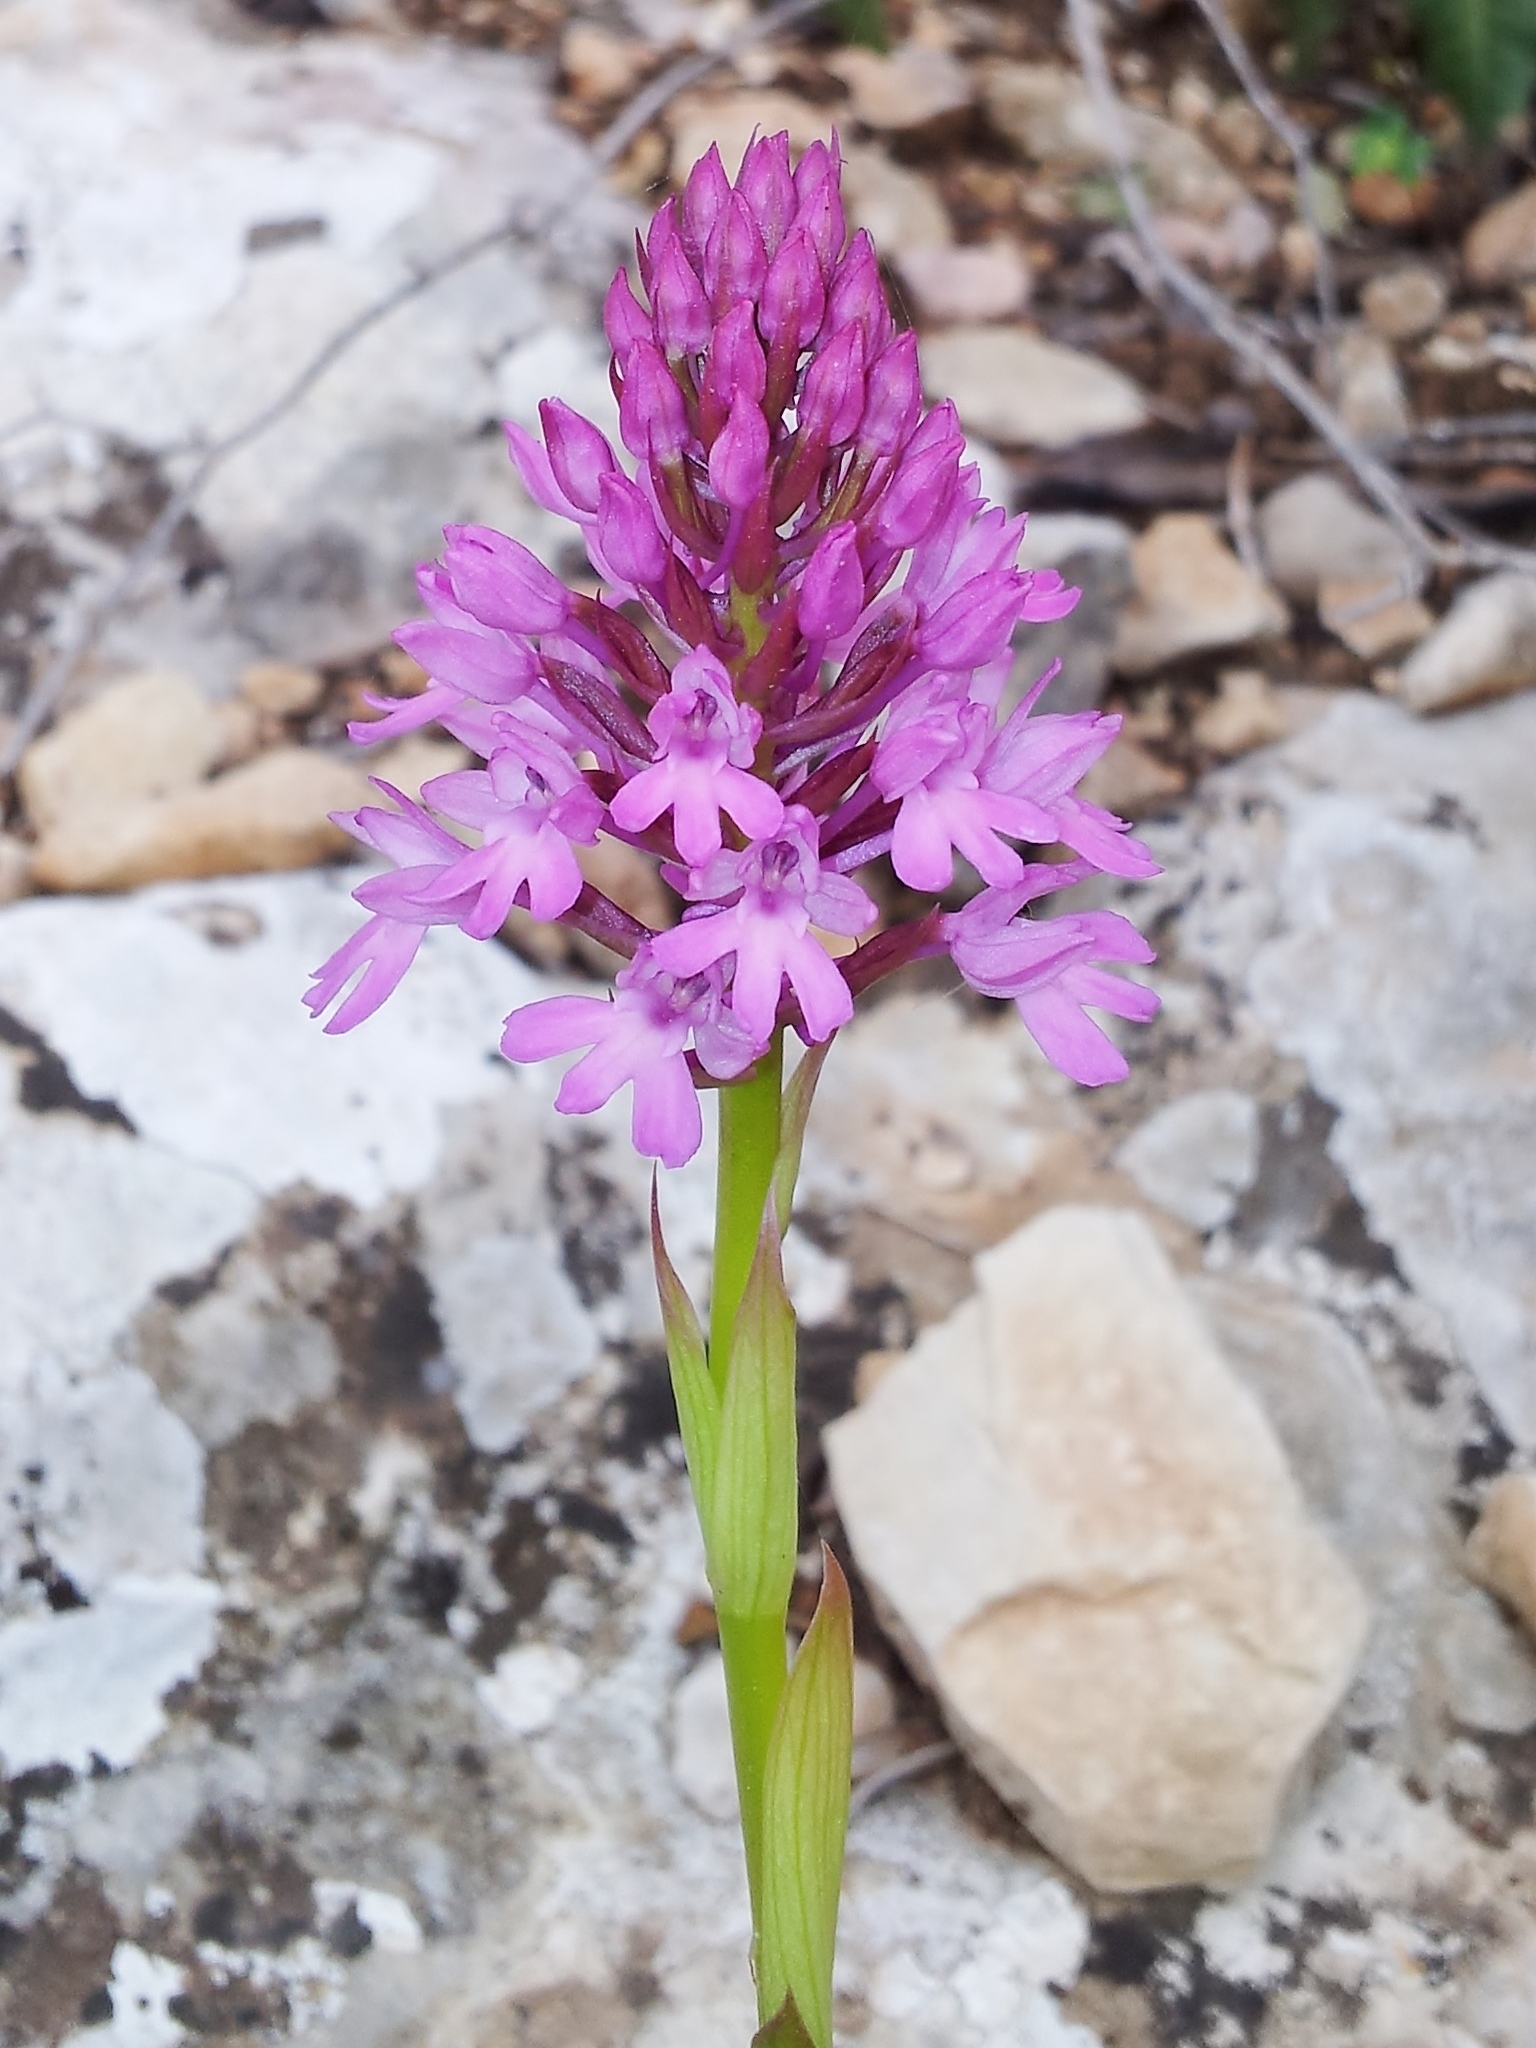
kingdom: Plantae
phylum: Tracheophyta
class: Liliopsida
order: Asparagales
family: Orchidaceae
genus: Anacamptis
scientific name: Anacamptis pyramidalis
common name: Pyramidal orchid
